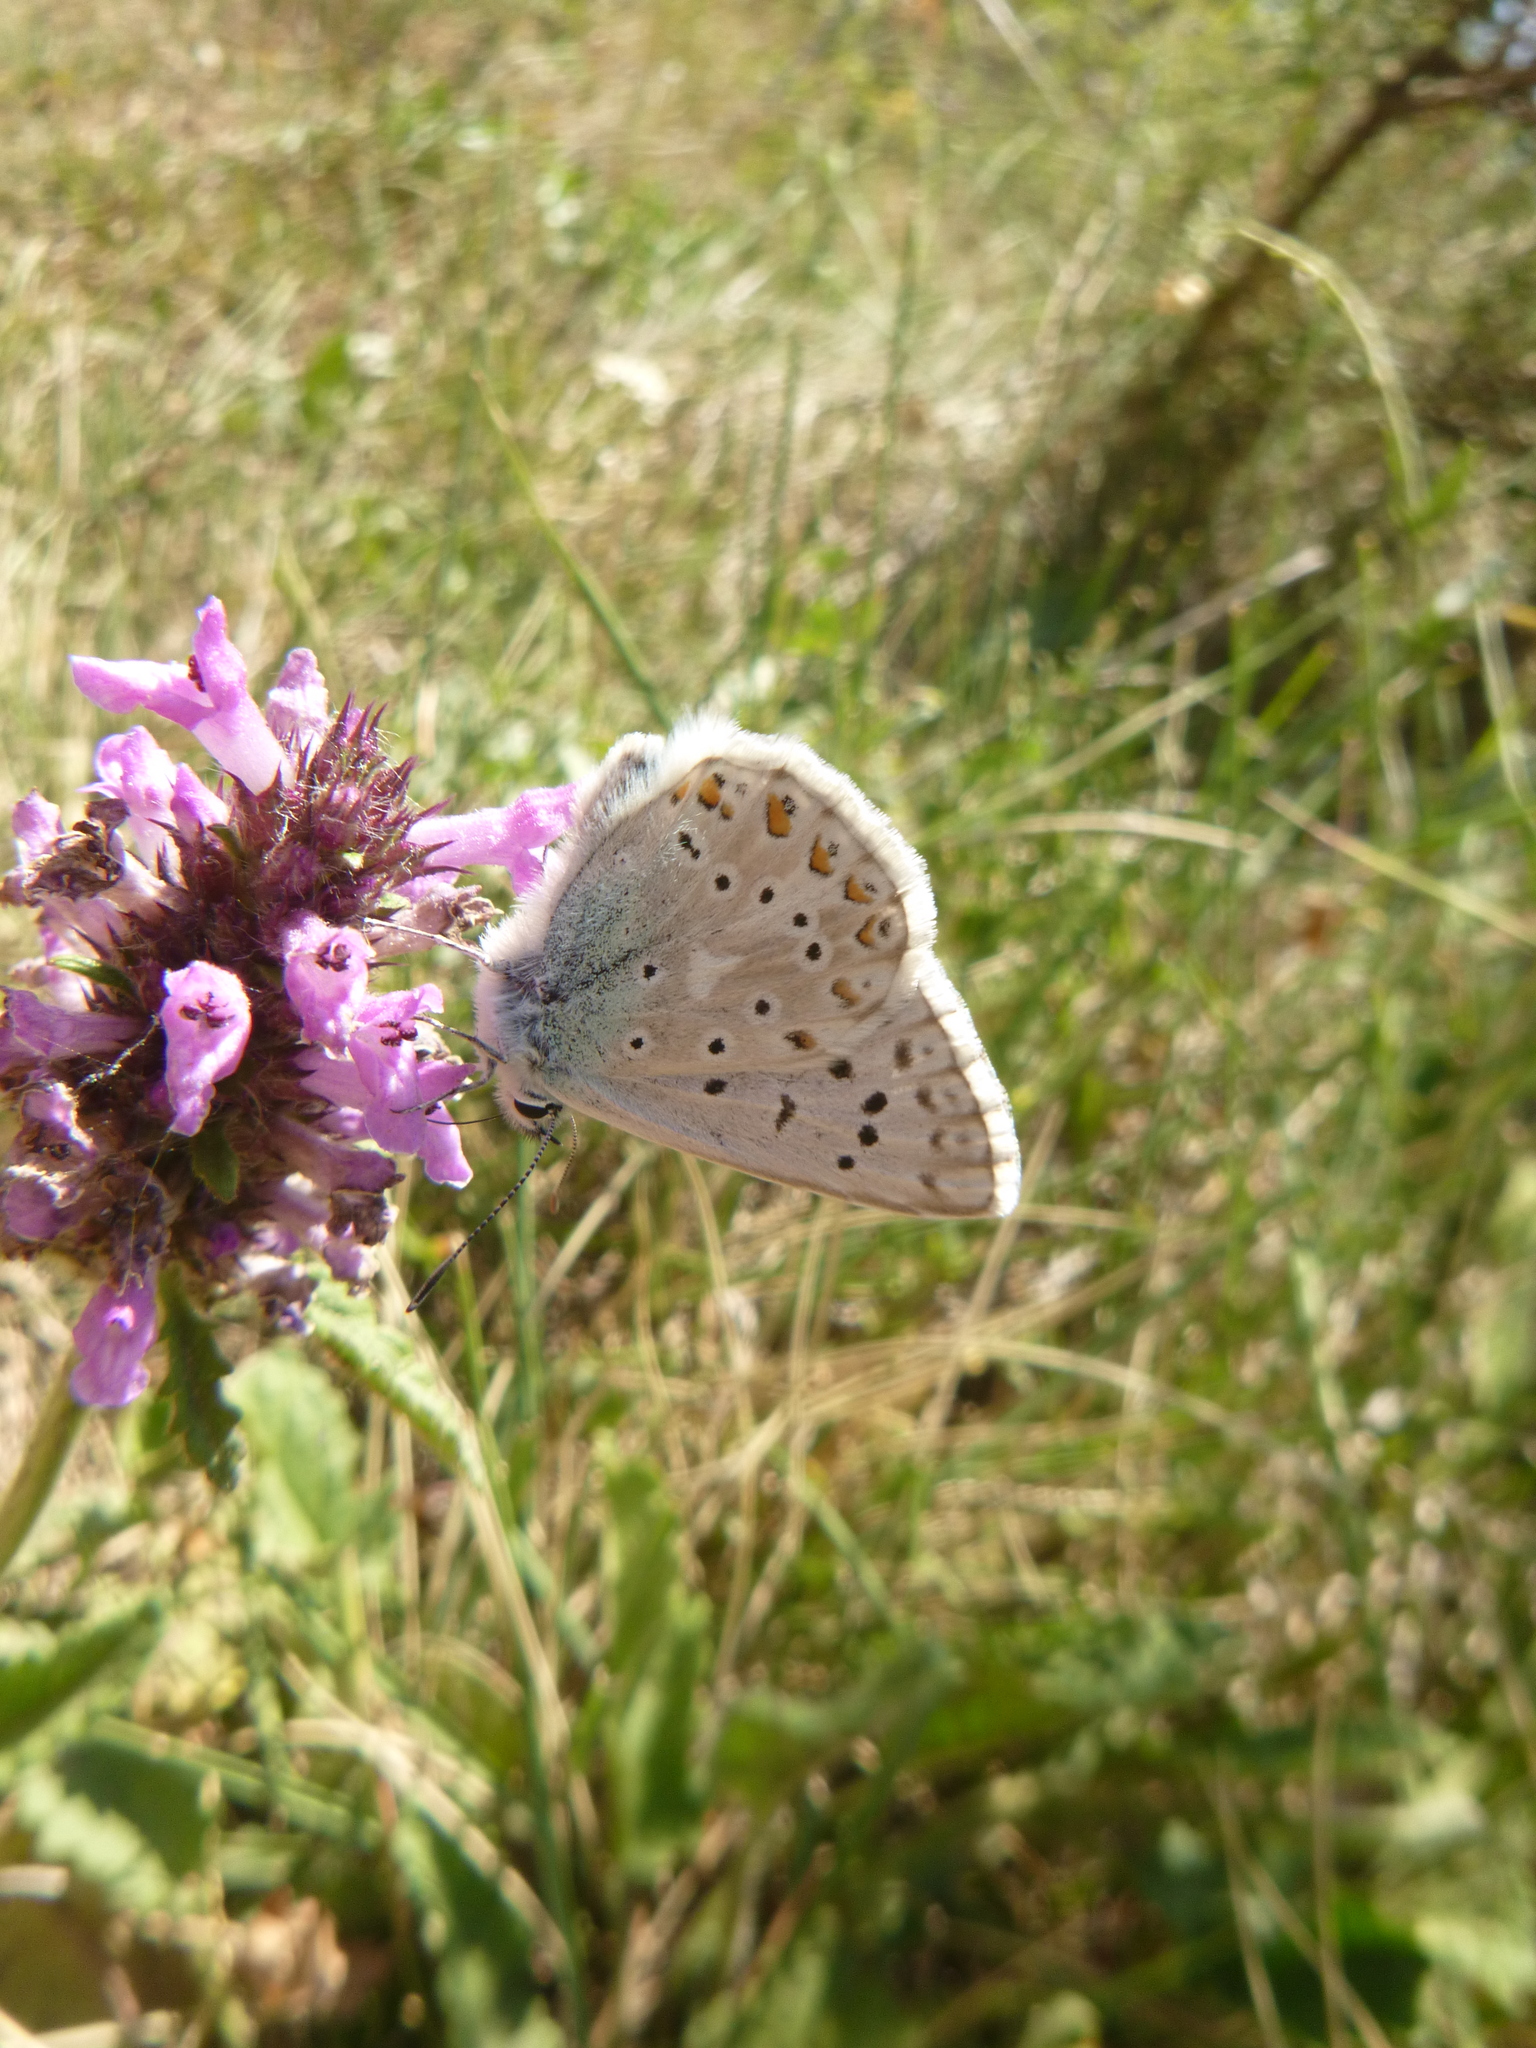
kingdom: Animalia
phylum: Arthropoda
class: Insecta
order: Lepidoptera
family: Lycaenidae
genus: Lysandra
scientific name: Lysandra coridon
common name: Chalkhill blue
